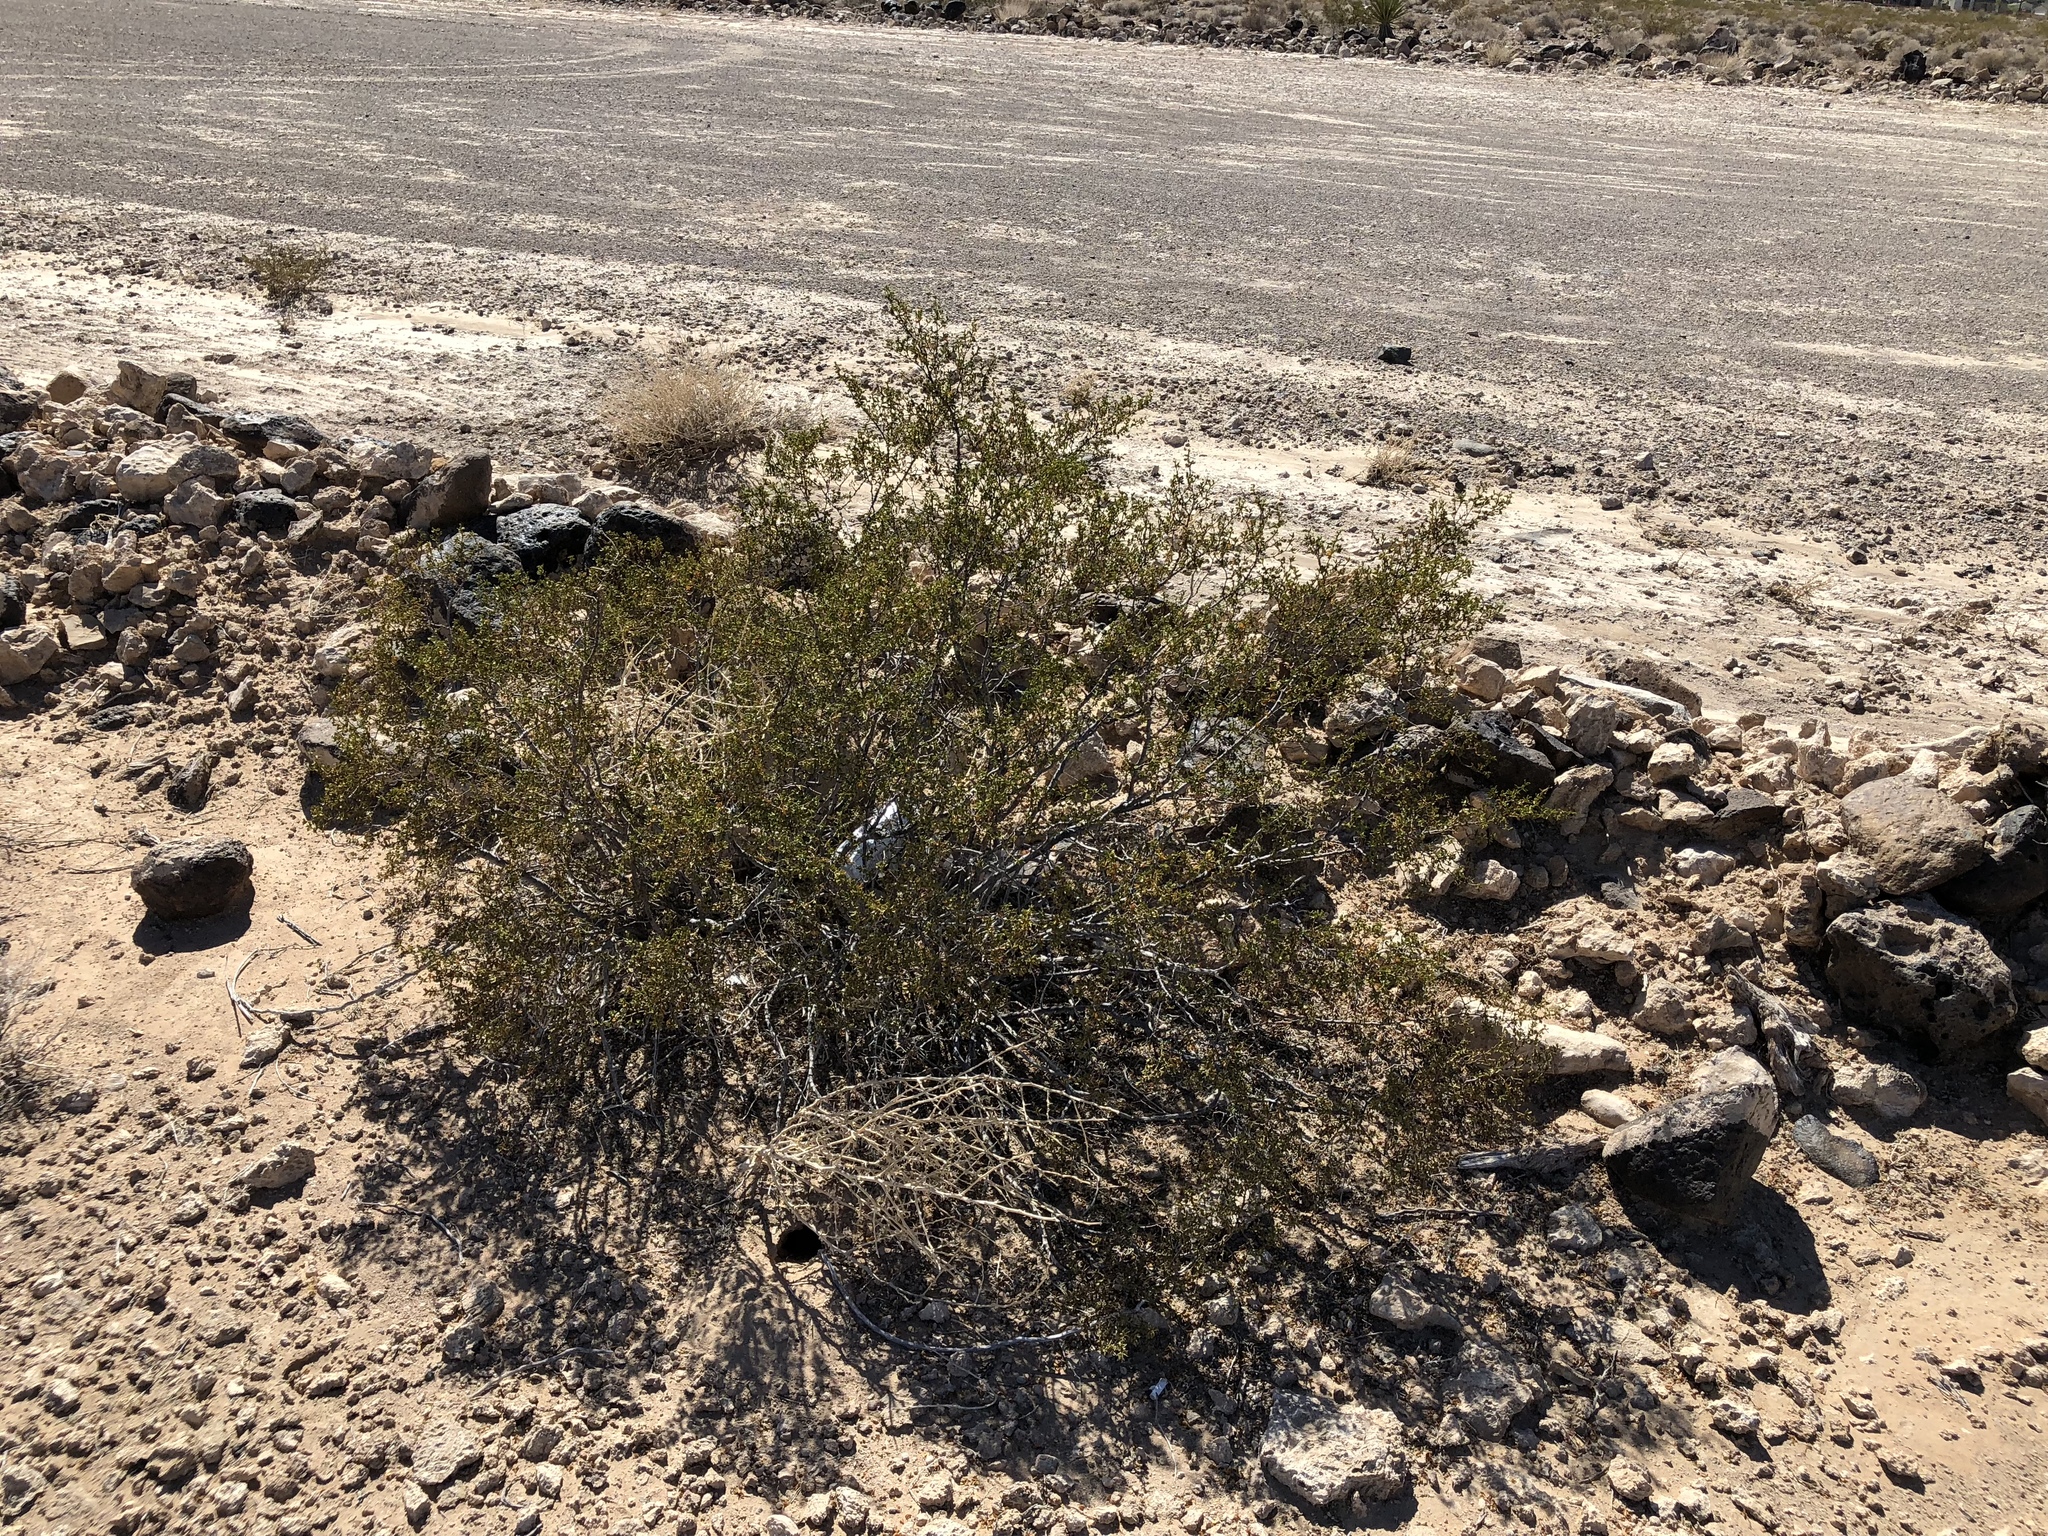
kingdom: Plantae
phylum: Tracheophyta
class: Magnoliopsida
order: Zygophyllales
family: Zygophyllaceae
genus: Larrea
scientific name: Larrea tridentata
